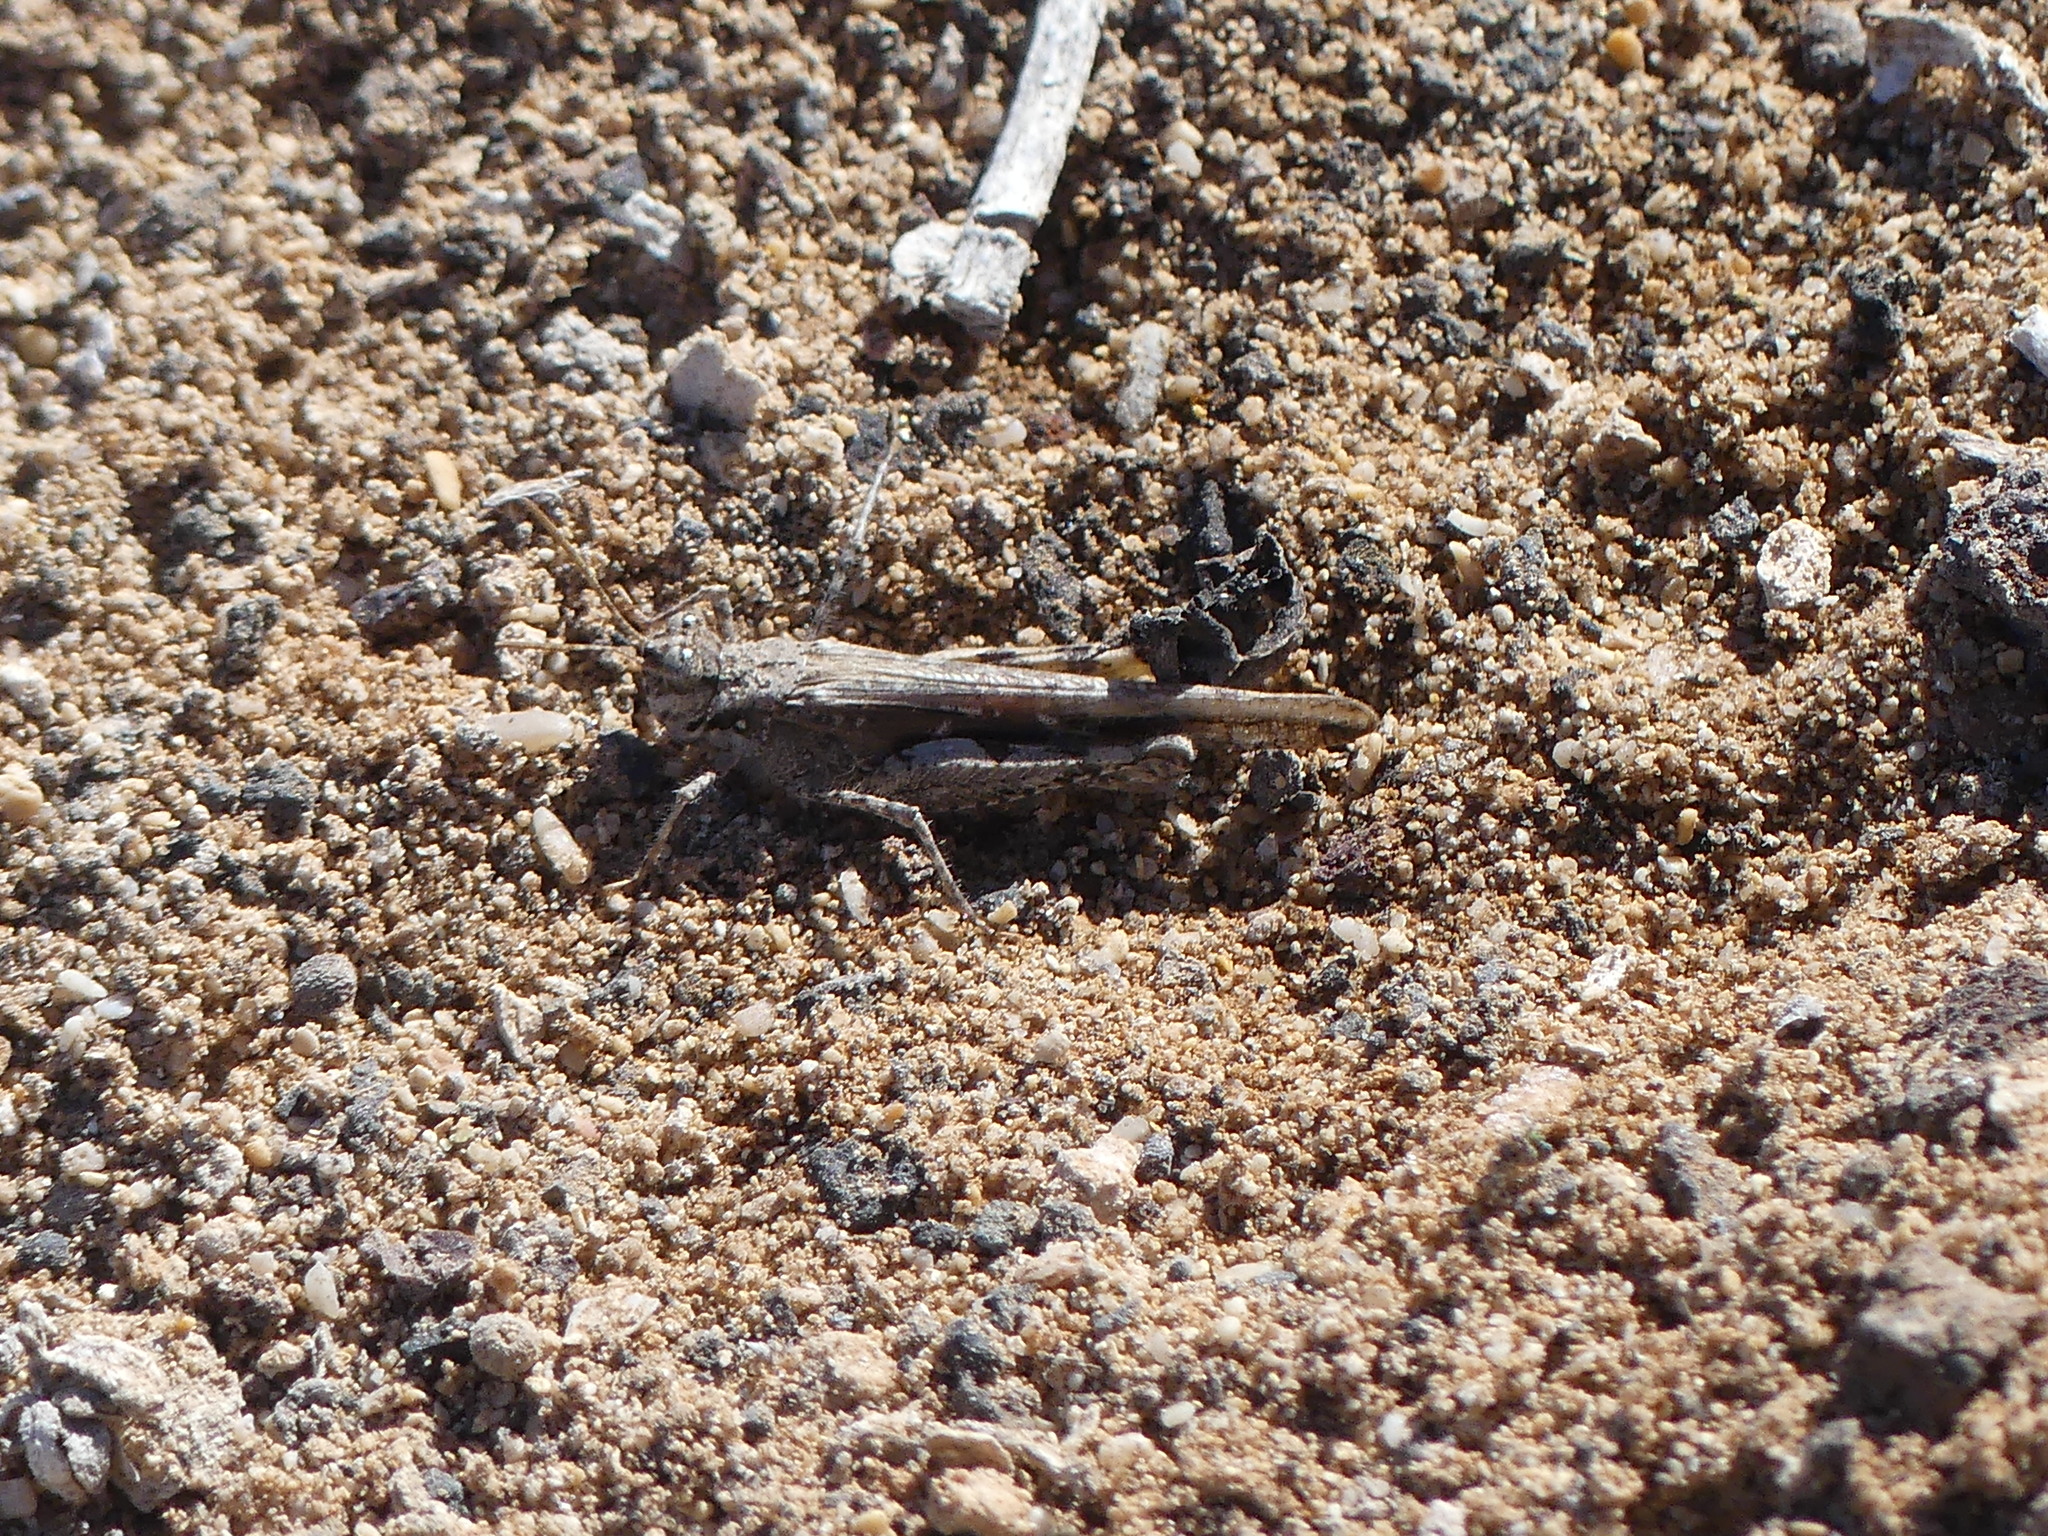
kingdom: Animalia
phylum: Arthropoda
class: Insecta
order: Orthoptera
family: Acrididae
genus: Acrotylus
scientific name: Acrotylus insubricus
